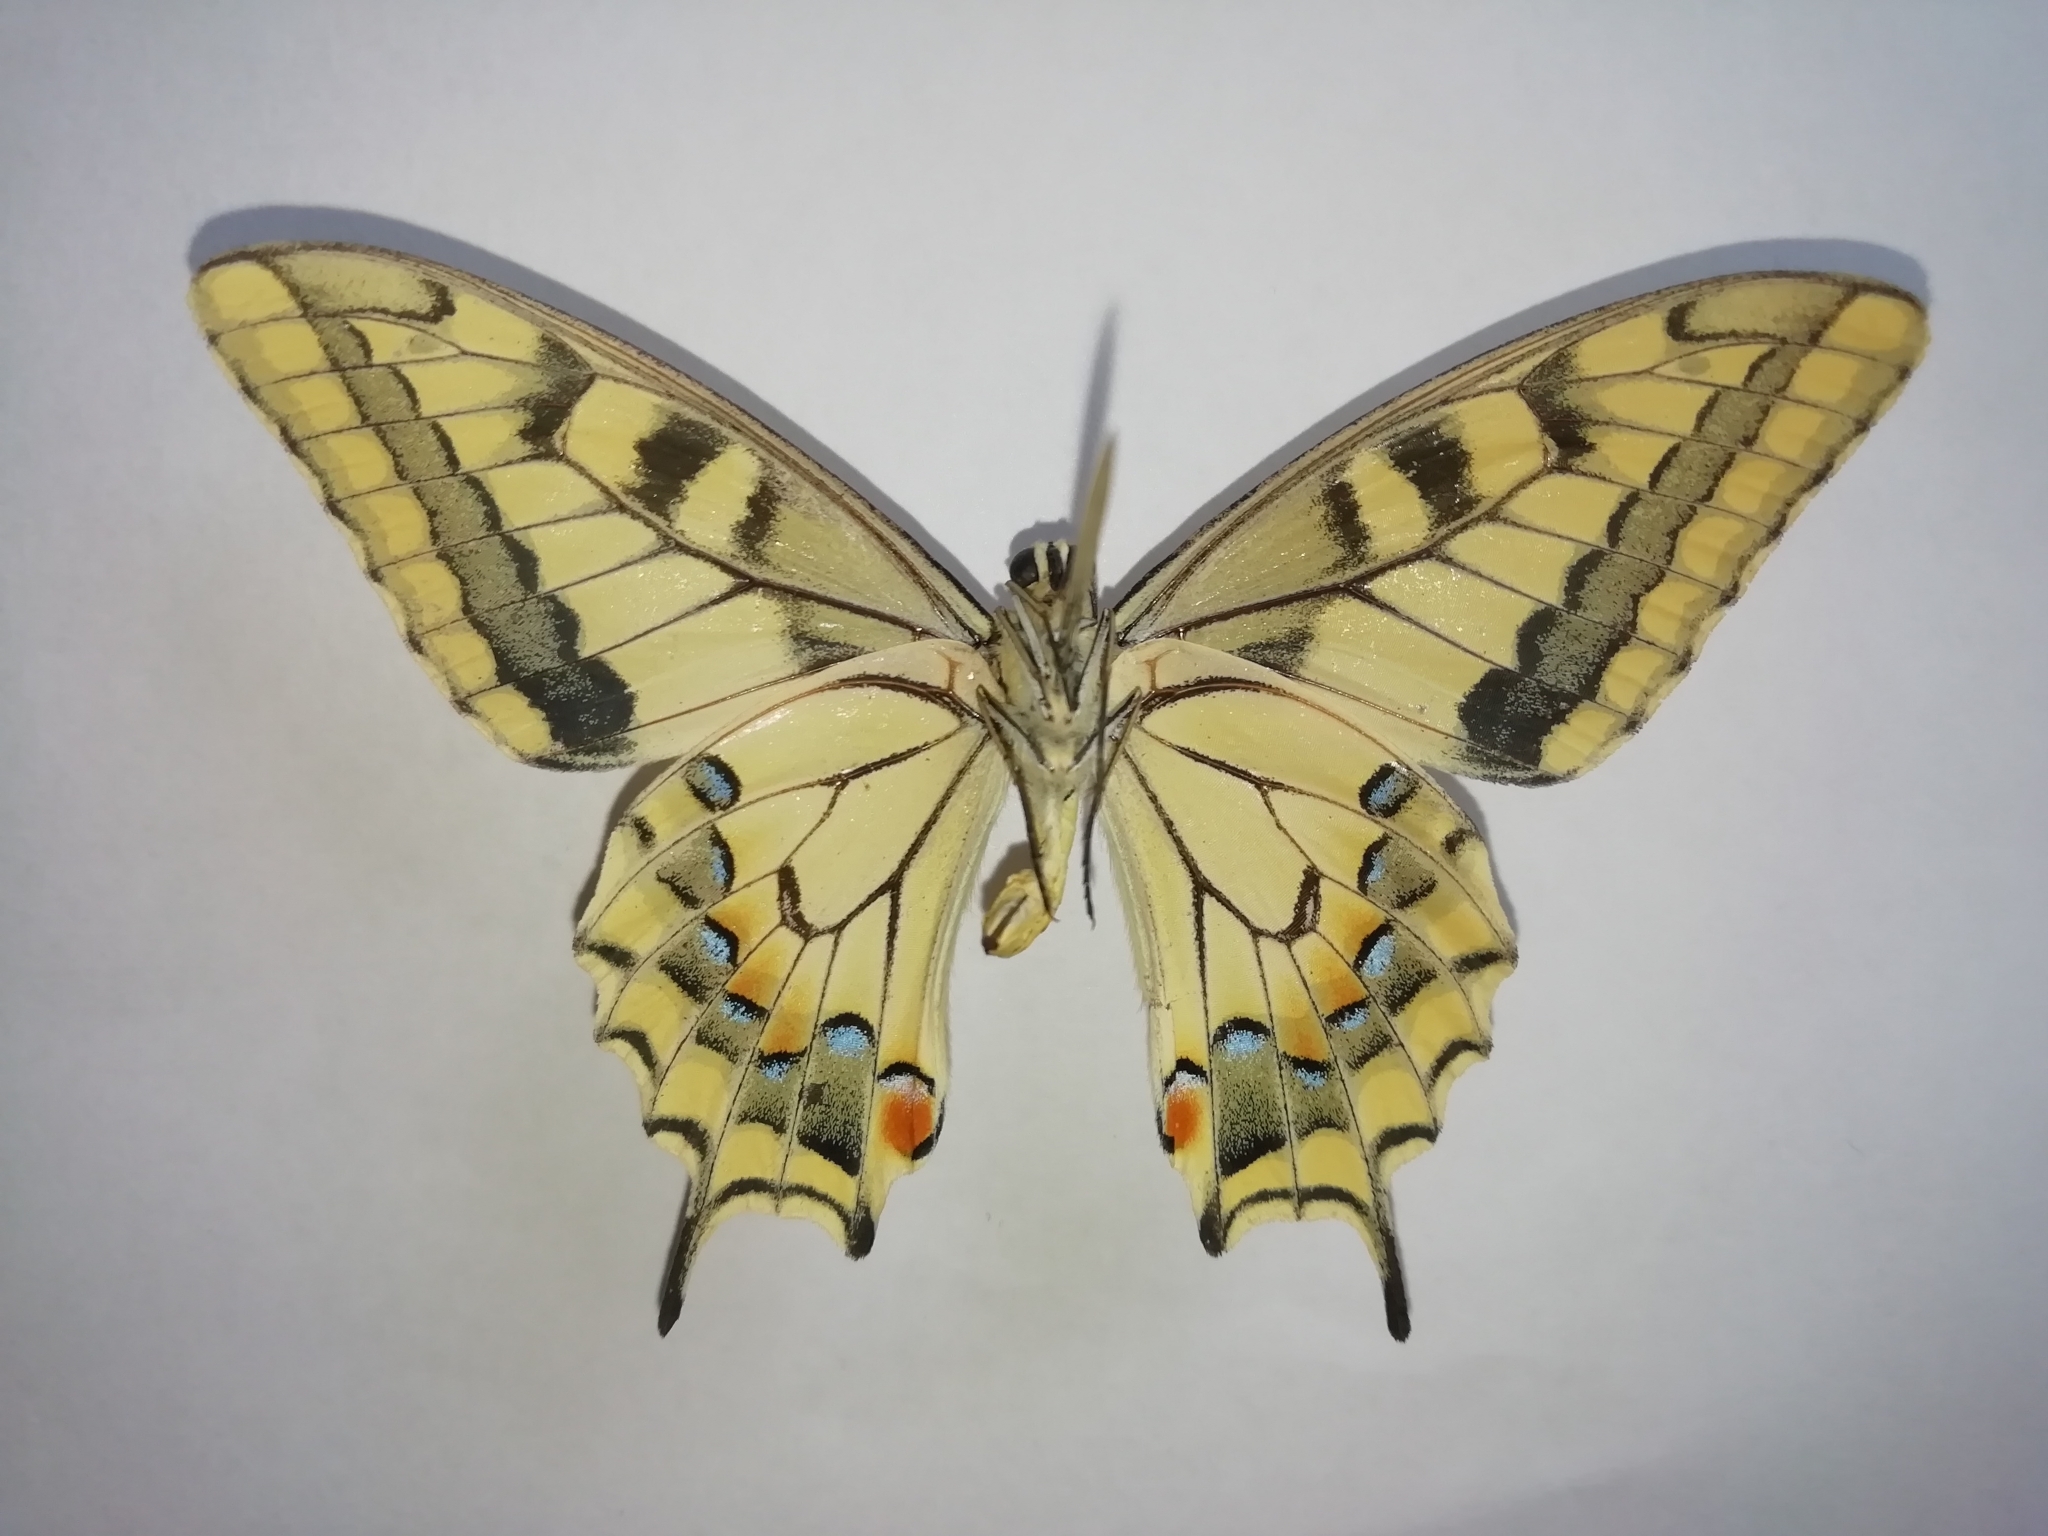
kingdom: Animalia
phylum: Arthropoda
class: Insecta
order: Lepidoptera
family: Papilionidae
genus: Papilio
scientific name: Papilio machaon
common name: Swallowtail
